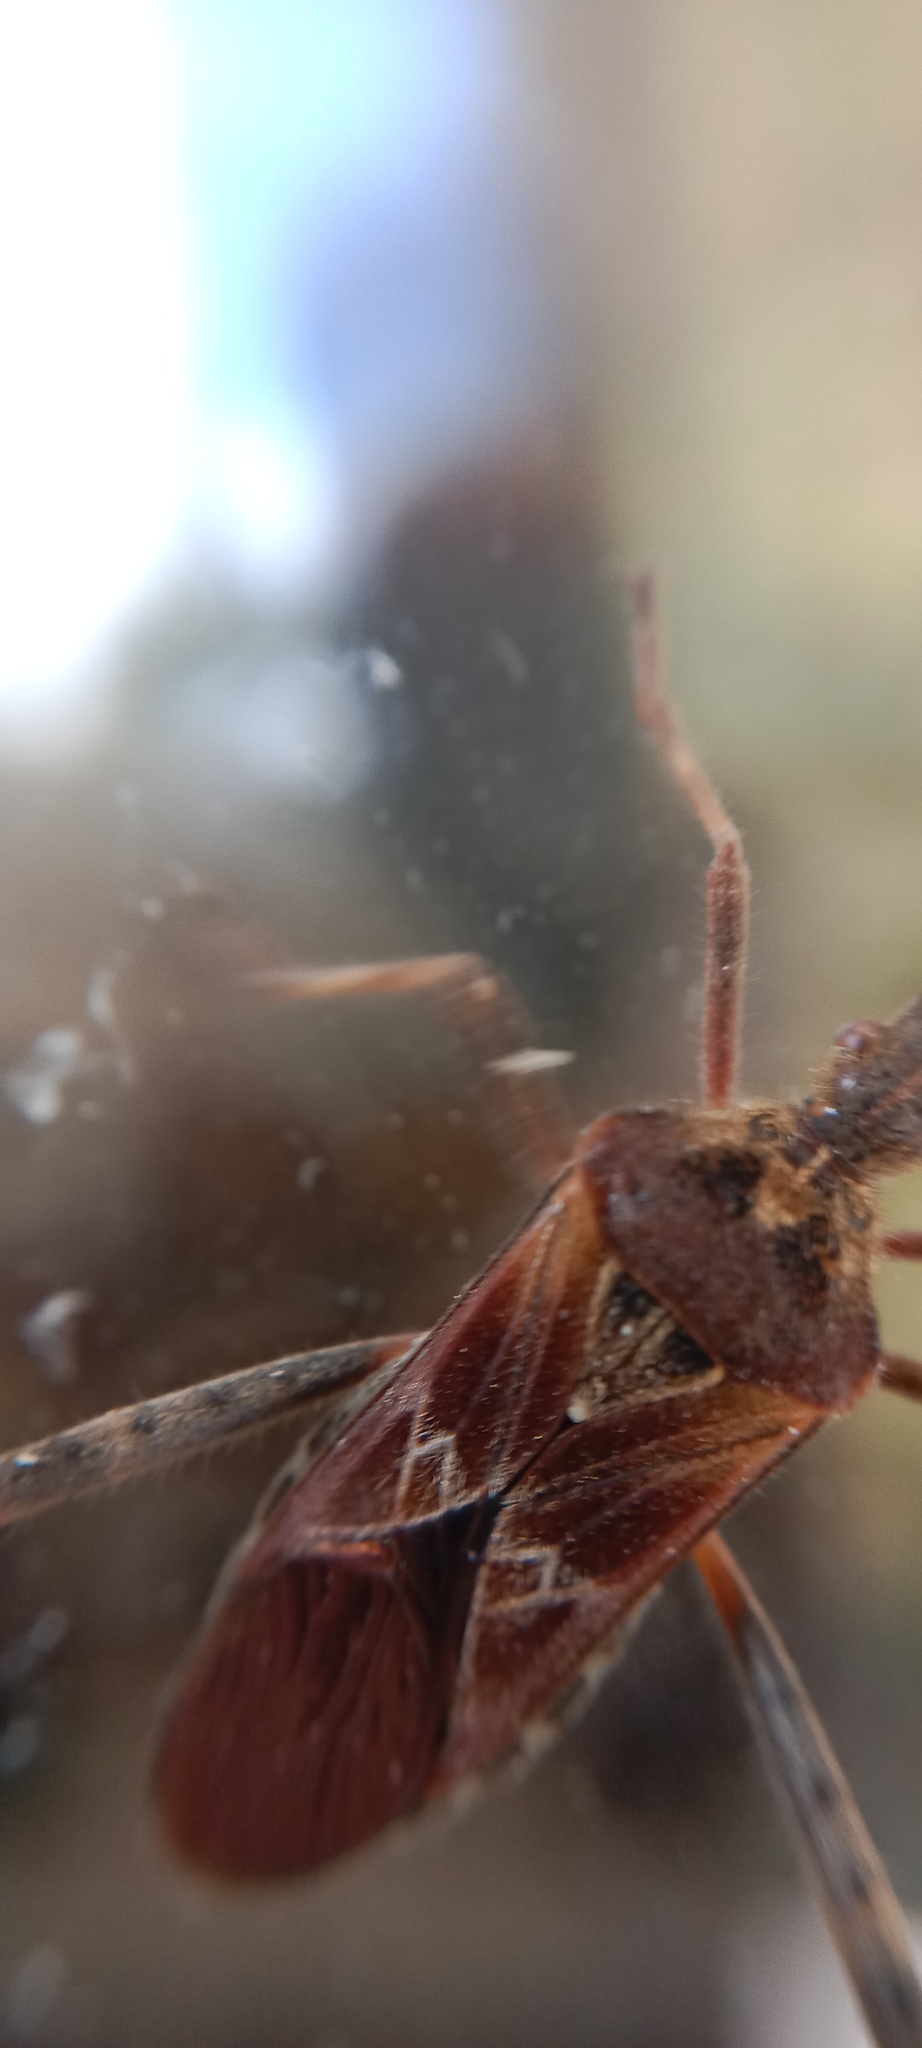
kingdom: Animalia
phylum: Arthropoda
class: Insecta
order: Hemiptera
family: Coreidae
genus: Leptoglossus
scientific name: Leptoglossus occidentalis
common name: Western conifer-seed bug
